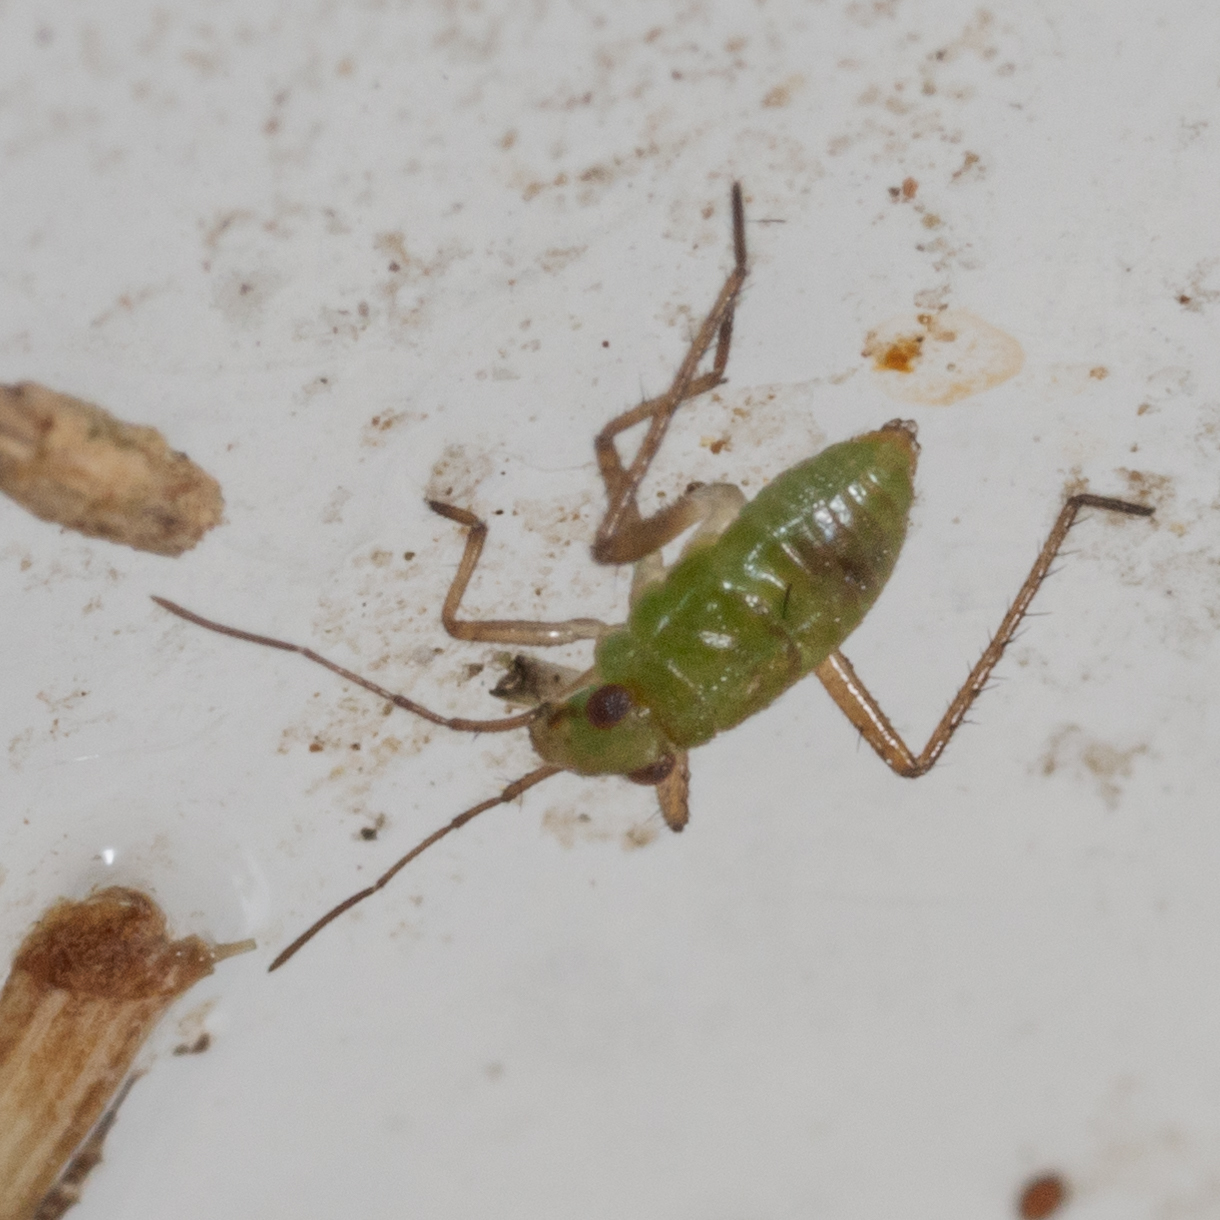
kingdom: Animalia
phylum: Arthropoda
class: Insecta
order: Hemiptera
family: Mesoveliidae
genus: Mesovelia
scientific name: Mesovelia
